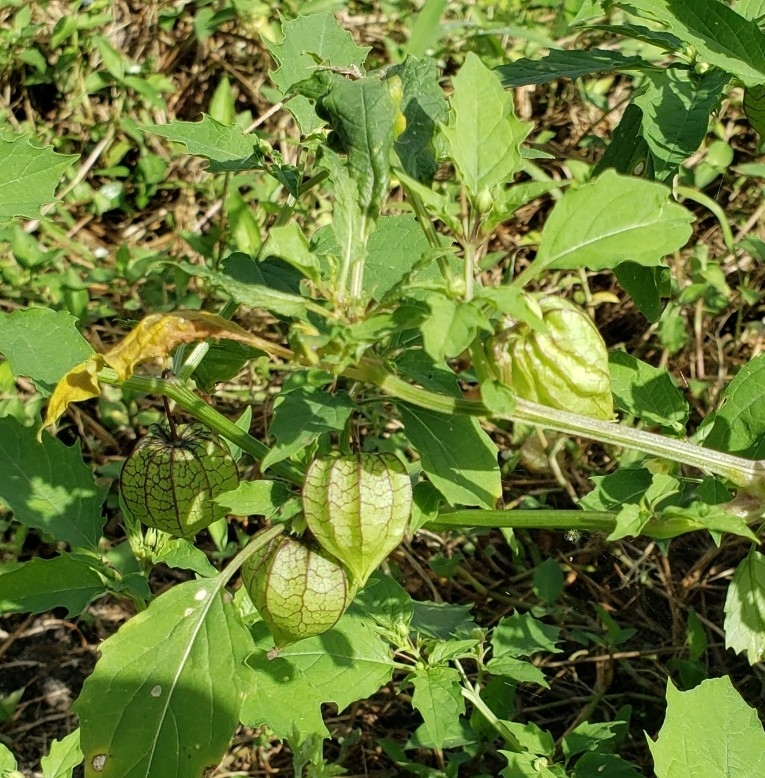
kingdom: Plantae
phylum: Tracheophyta
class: Magnoliopsida
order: Solanales
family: Solanaceae
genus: Physalis
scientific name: Physalis angulata
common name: Angular winter-cherry
